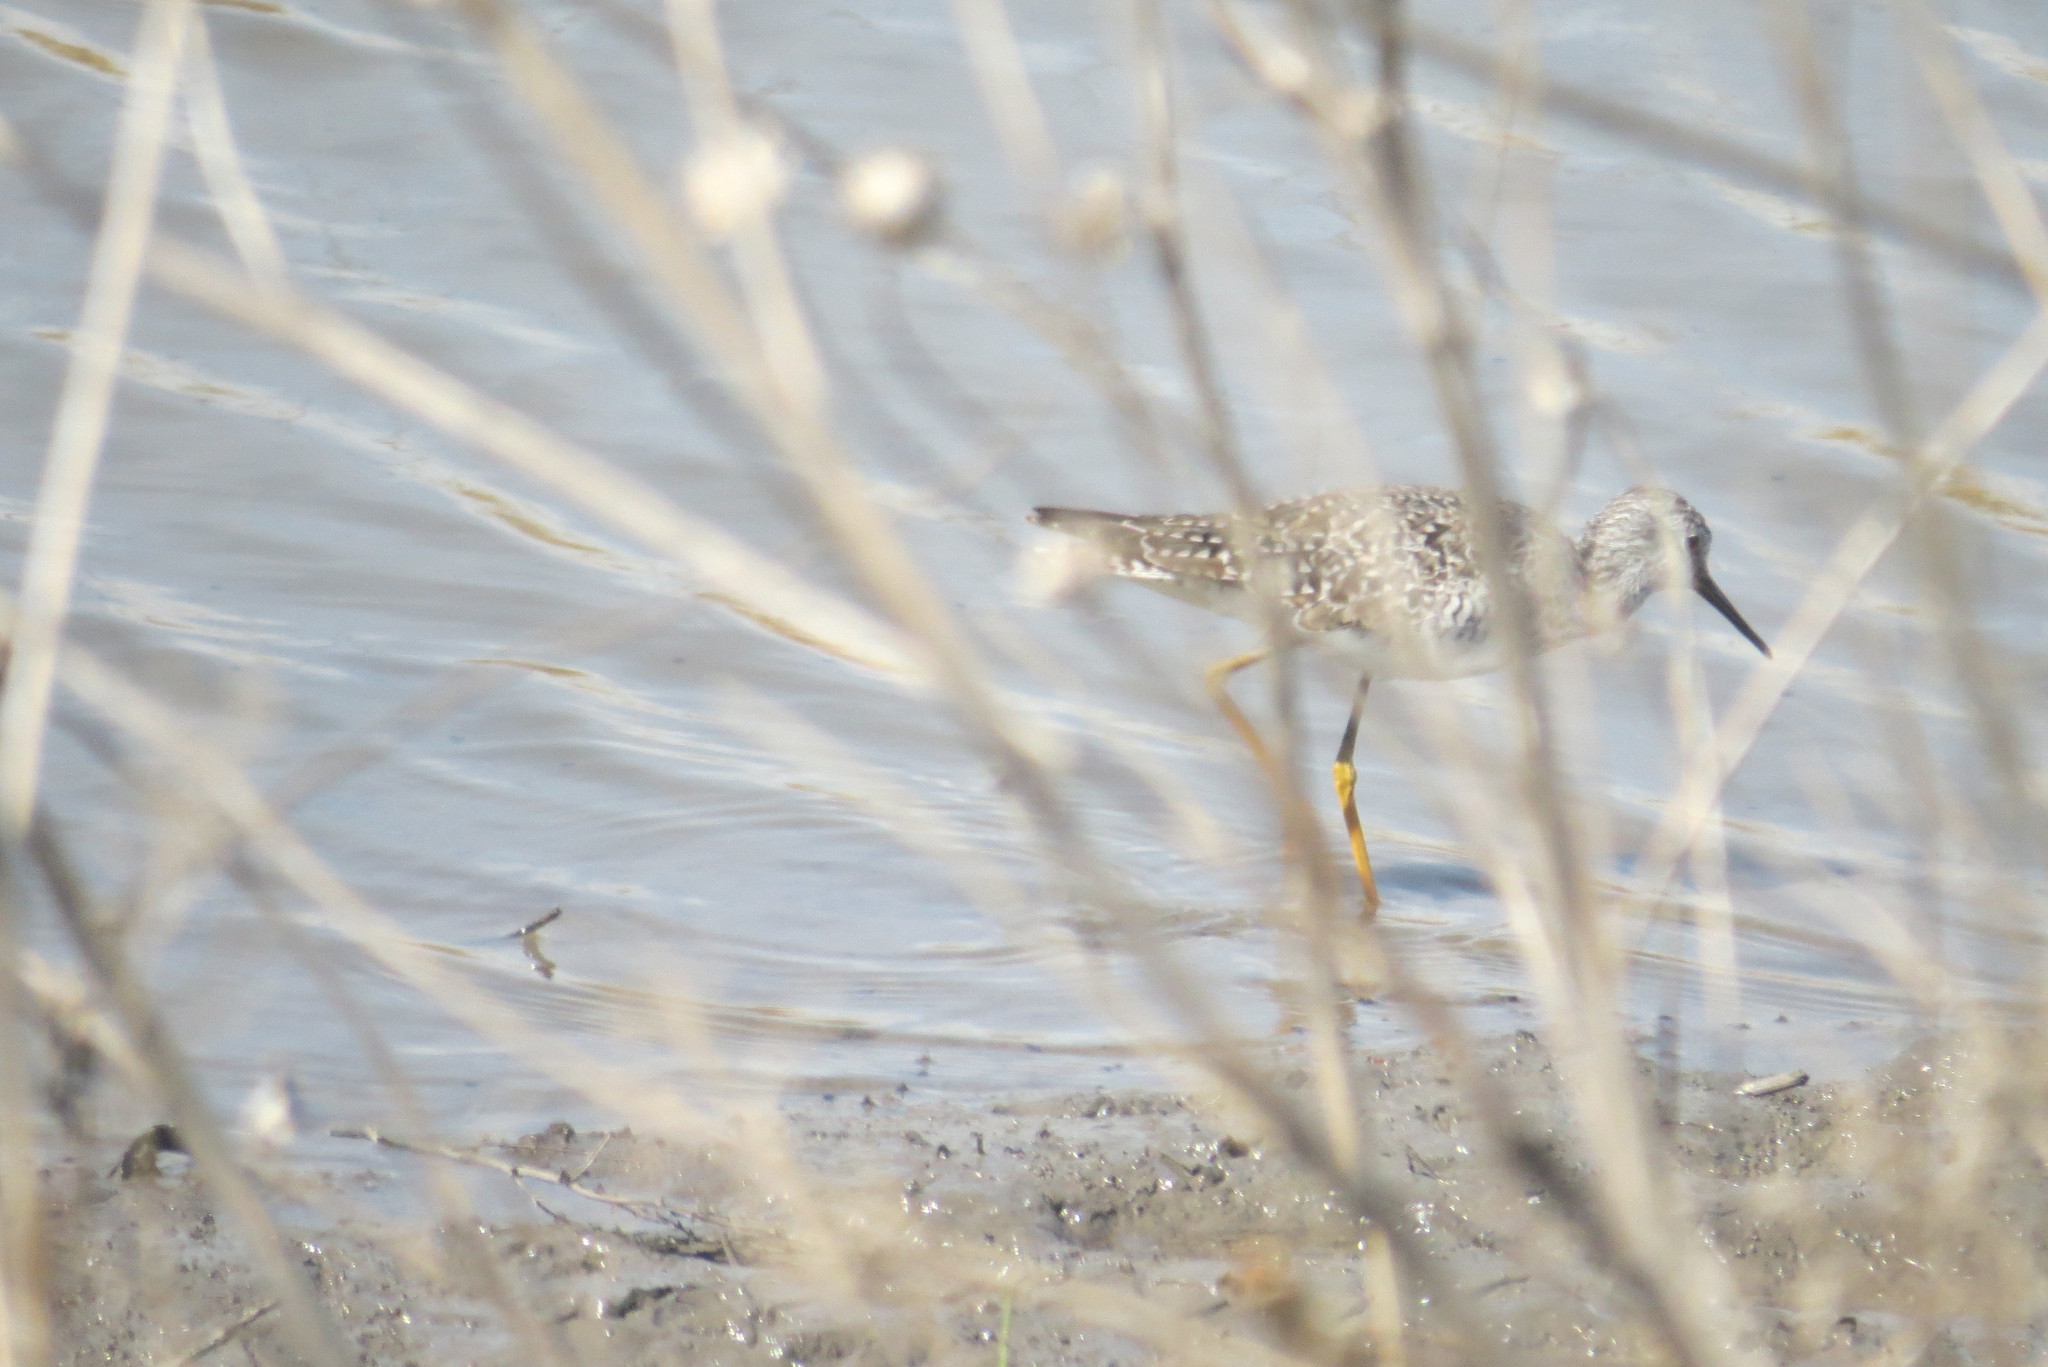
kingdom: Animalia
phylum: Chordata
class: Aves
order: Charadriiformes
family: Scolopacidae
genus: Tringa
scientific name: Tringa flavipes
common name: Lesser yellowlegs
